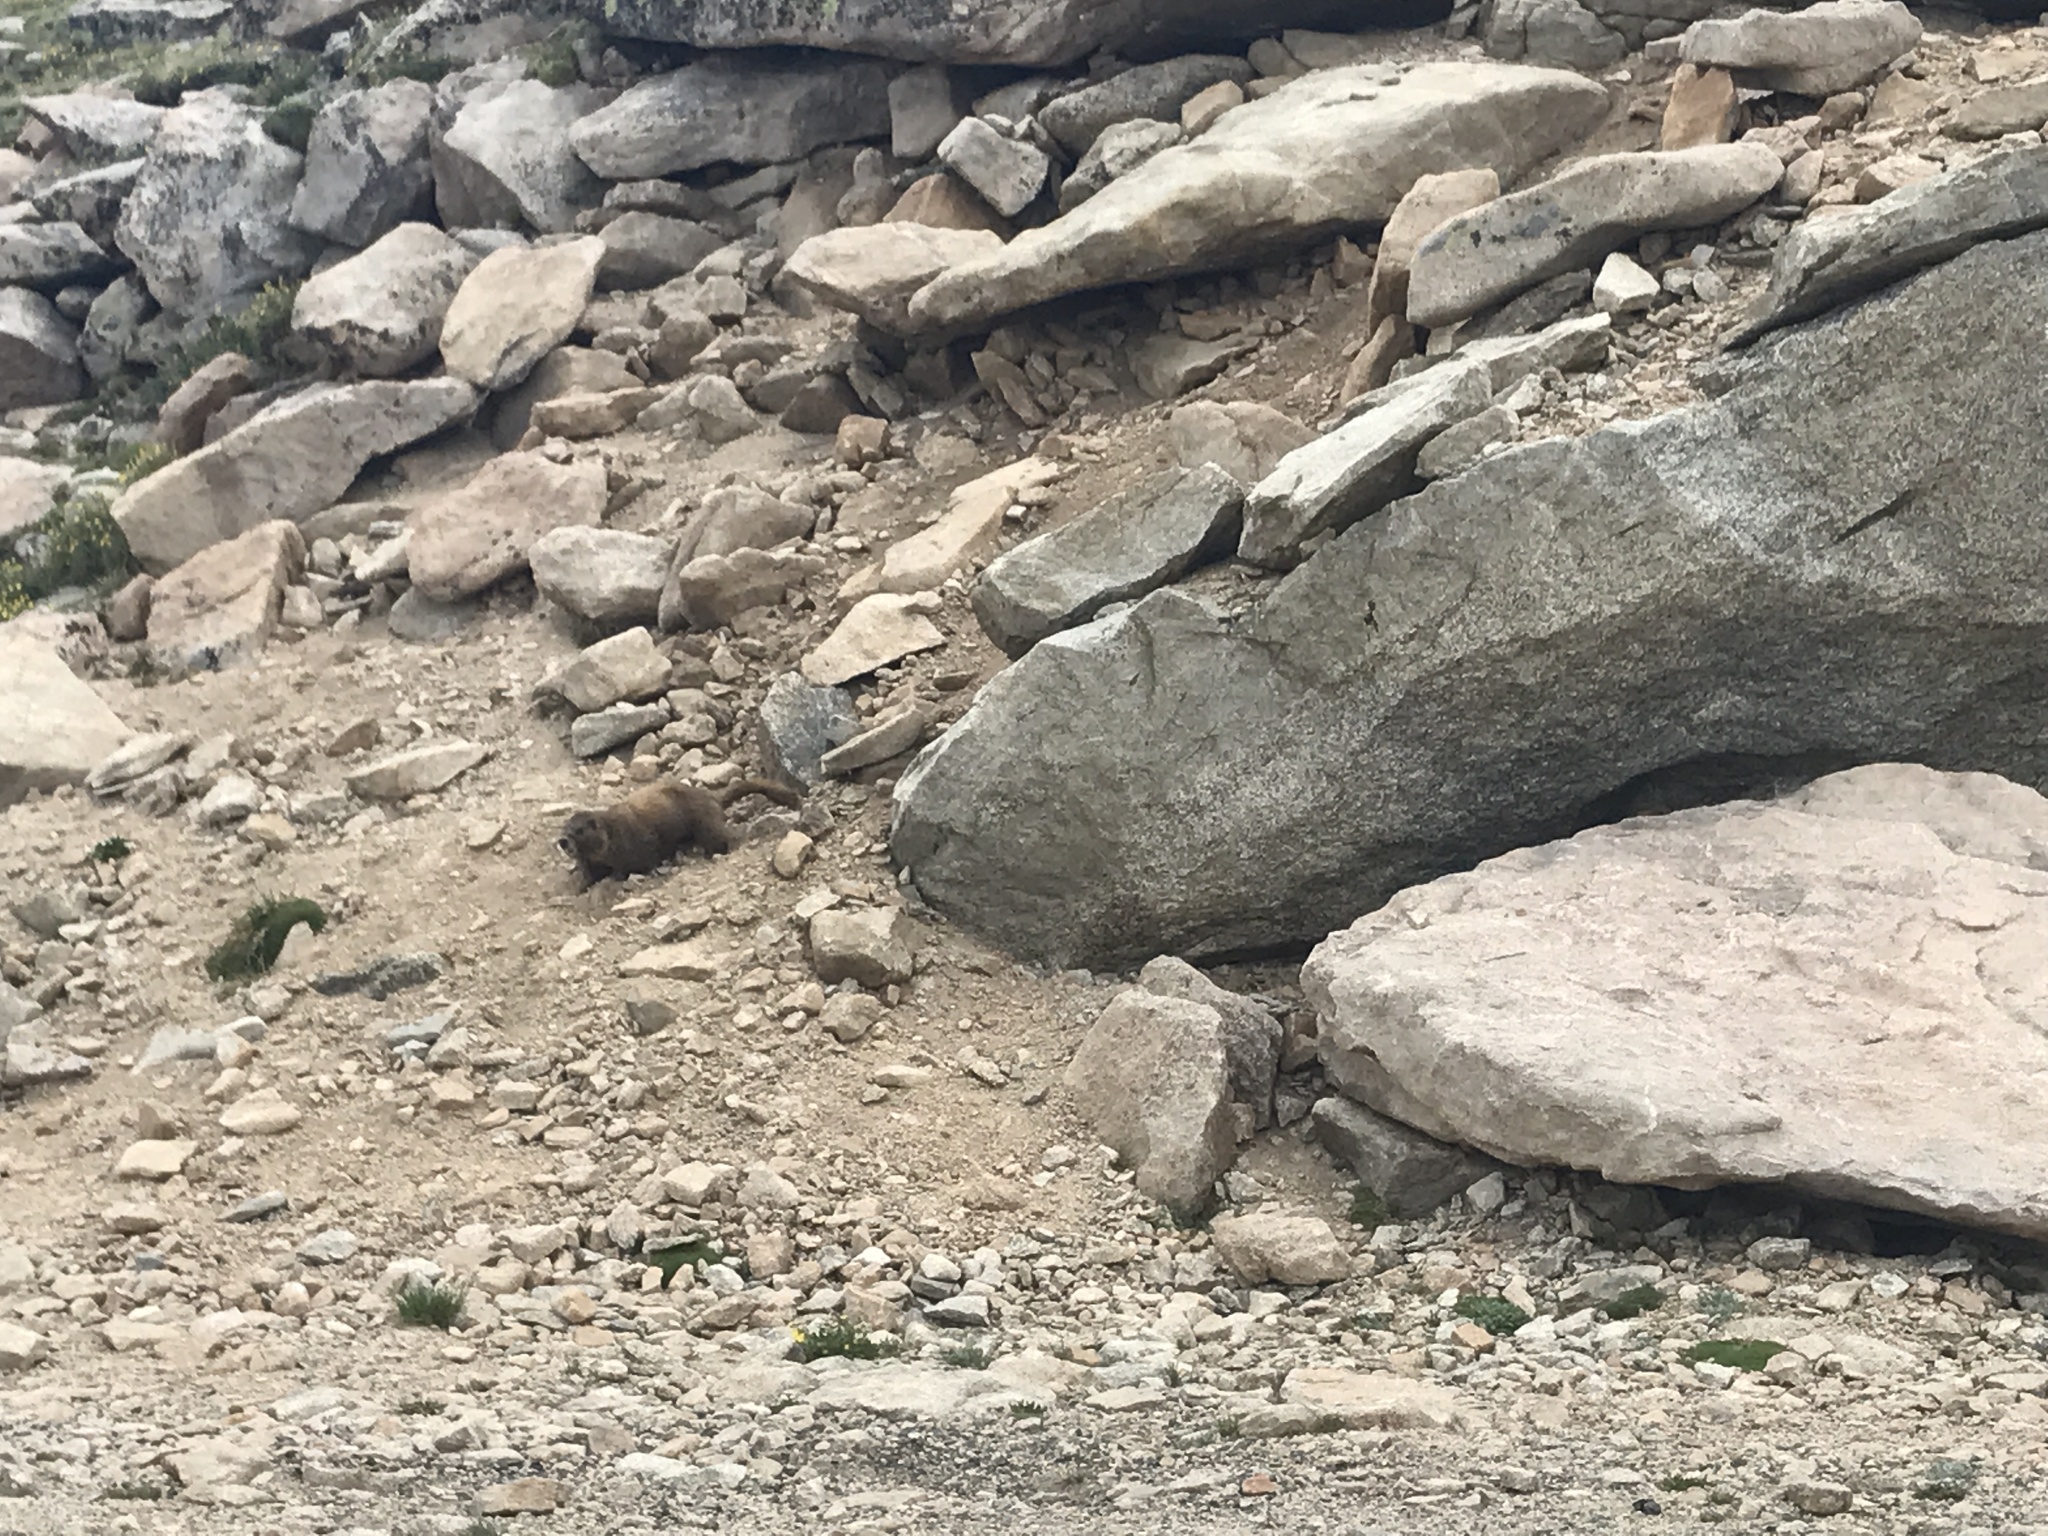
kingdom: Animalia
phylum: Chordata
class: Mammalia
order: Rodentia
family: Sciuridae
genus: Marmota
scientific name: Marmota flaviventris
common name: Yellow-bellied marmot
